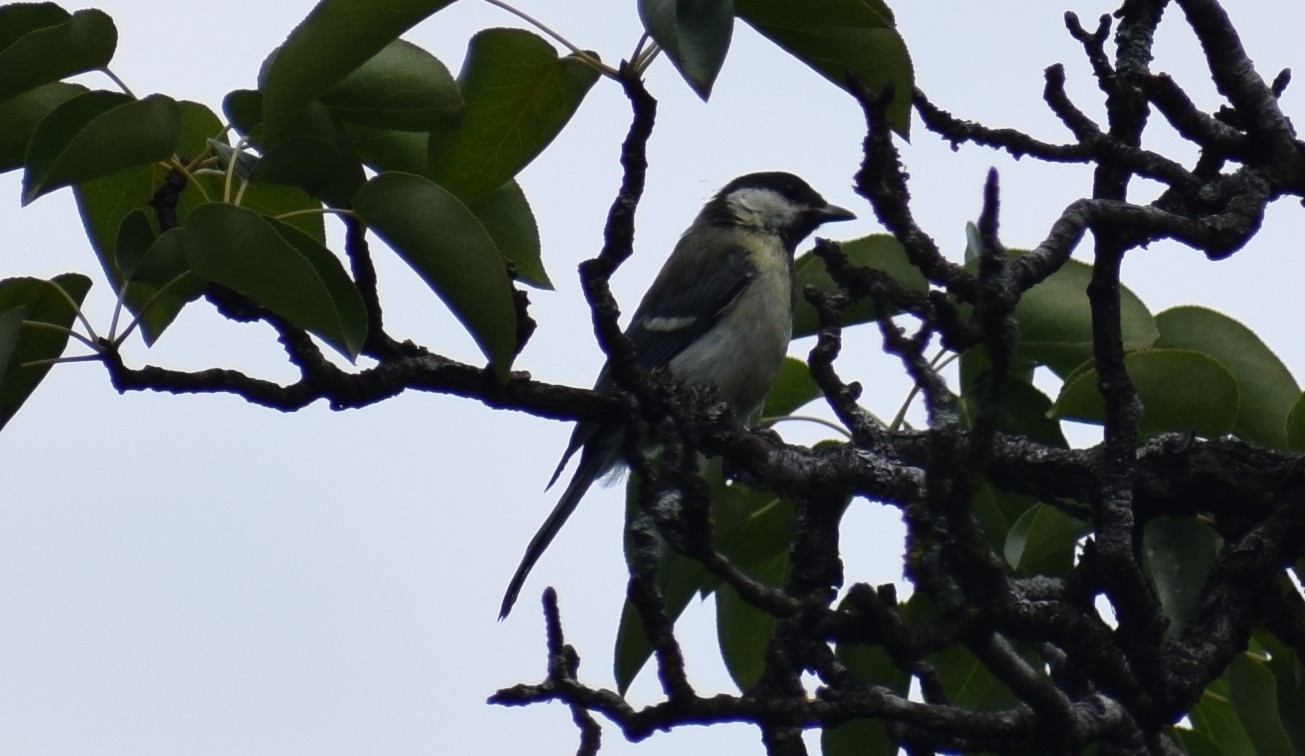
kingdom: Animalia
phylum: Chordata
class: Aves
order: Passeriformes
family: Paridae
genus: Parus
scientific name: Parus major
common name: Great tit
